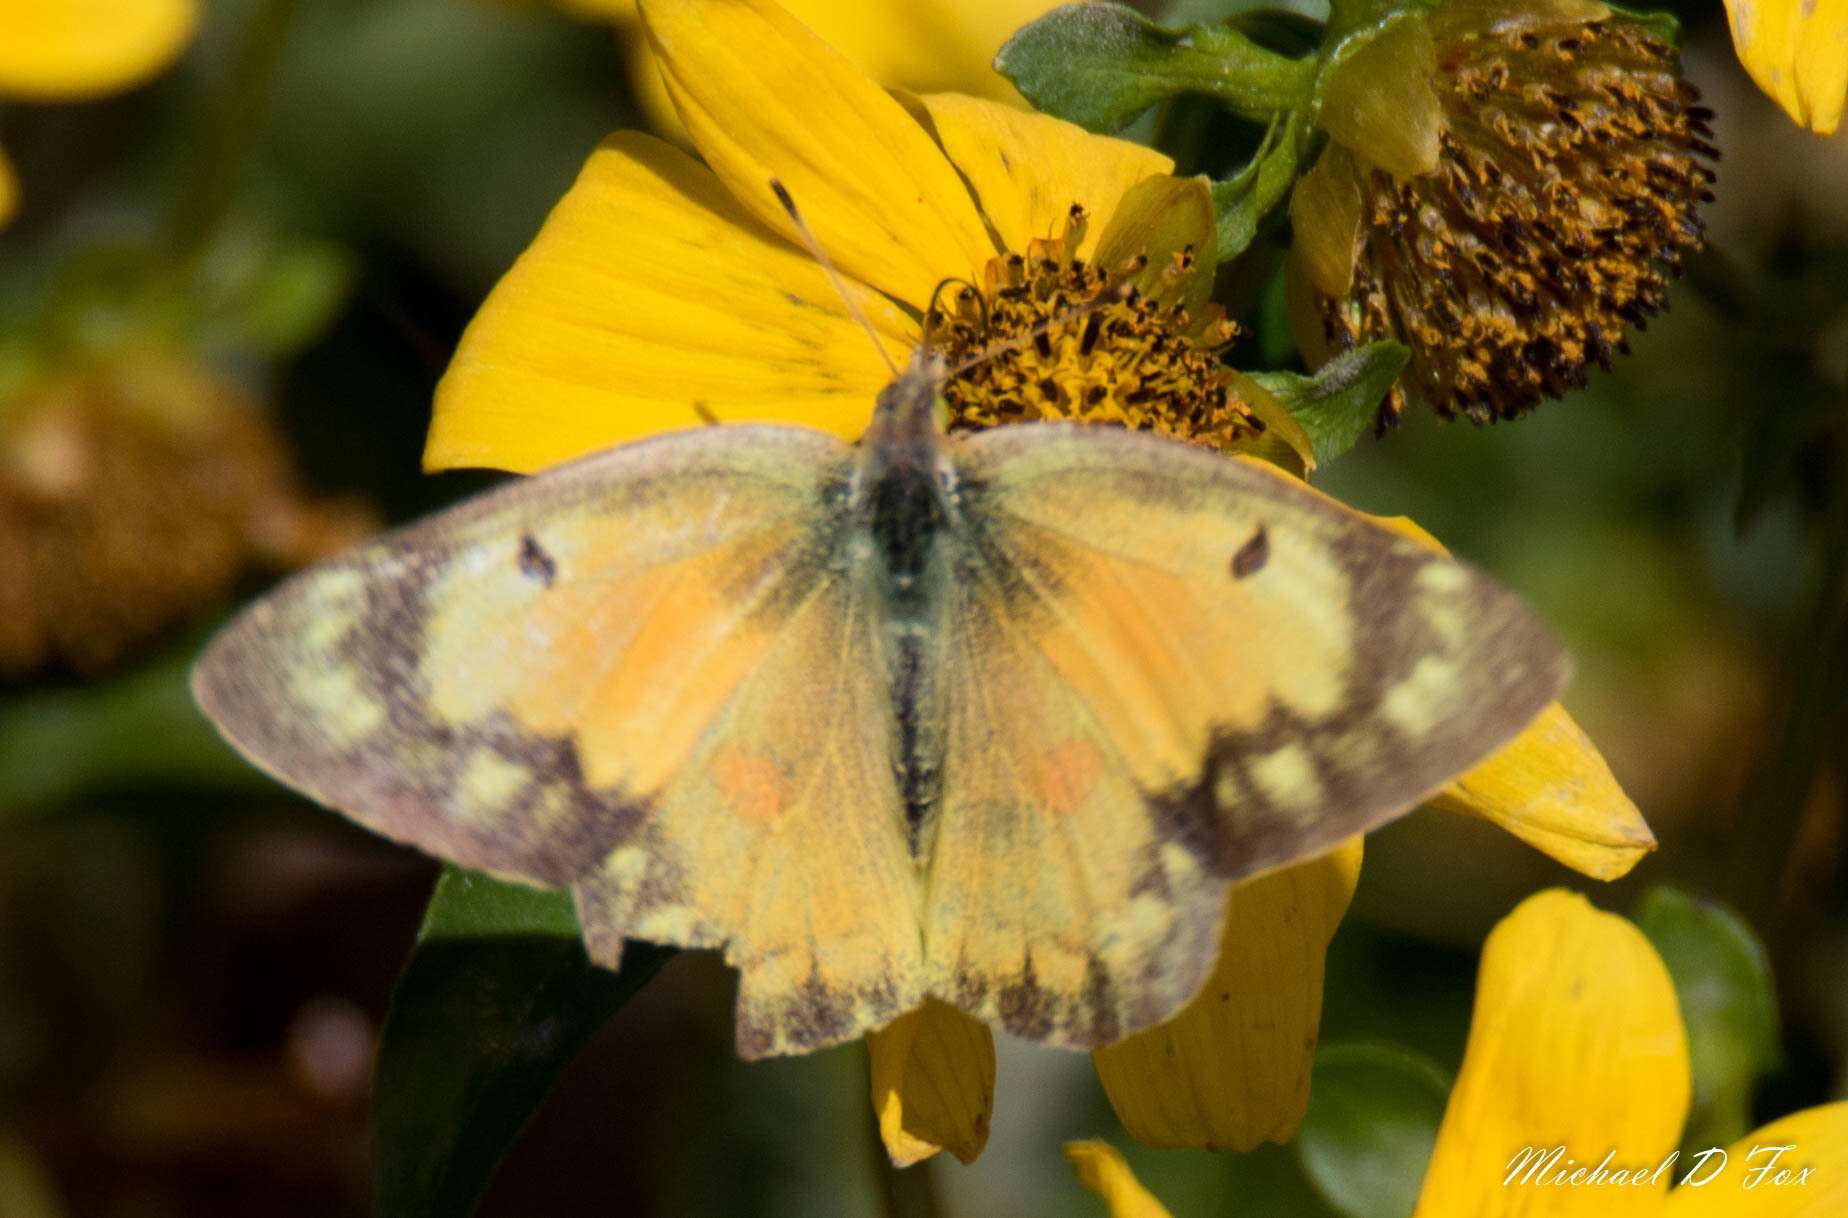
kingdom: Animalia
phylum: Arthropoda
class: Insecta
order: Lepidoptera
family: Pieridae
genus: Colias
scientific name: Colias eurytheme
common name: Alfalfa butterfly
